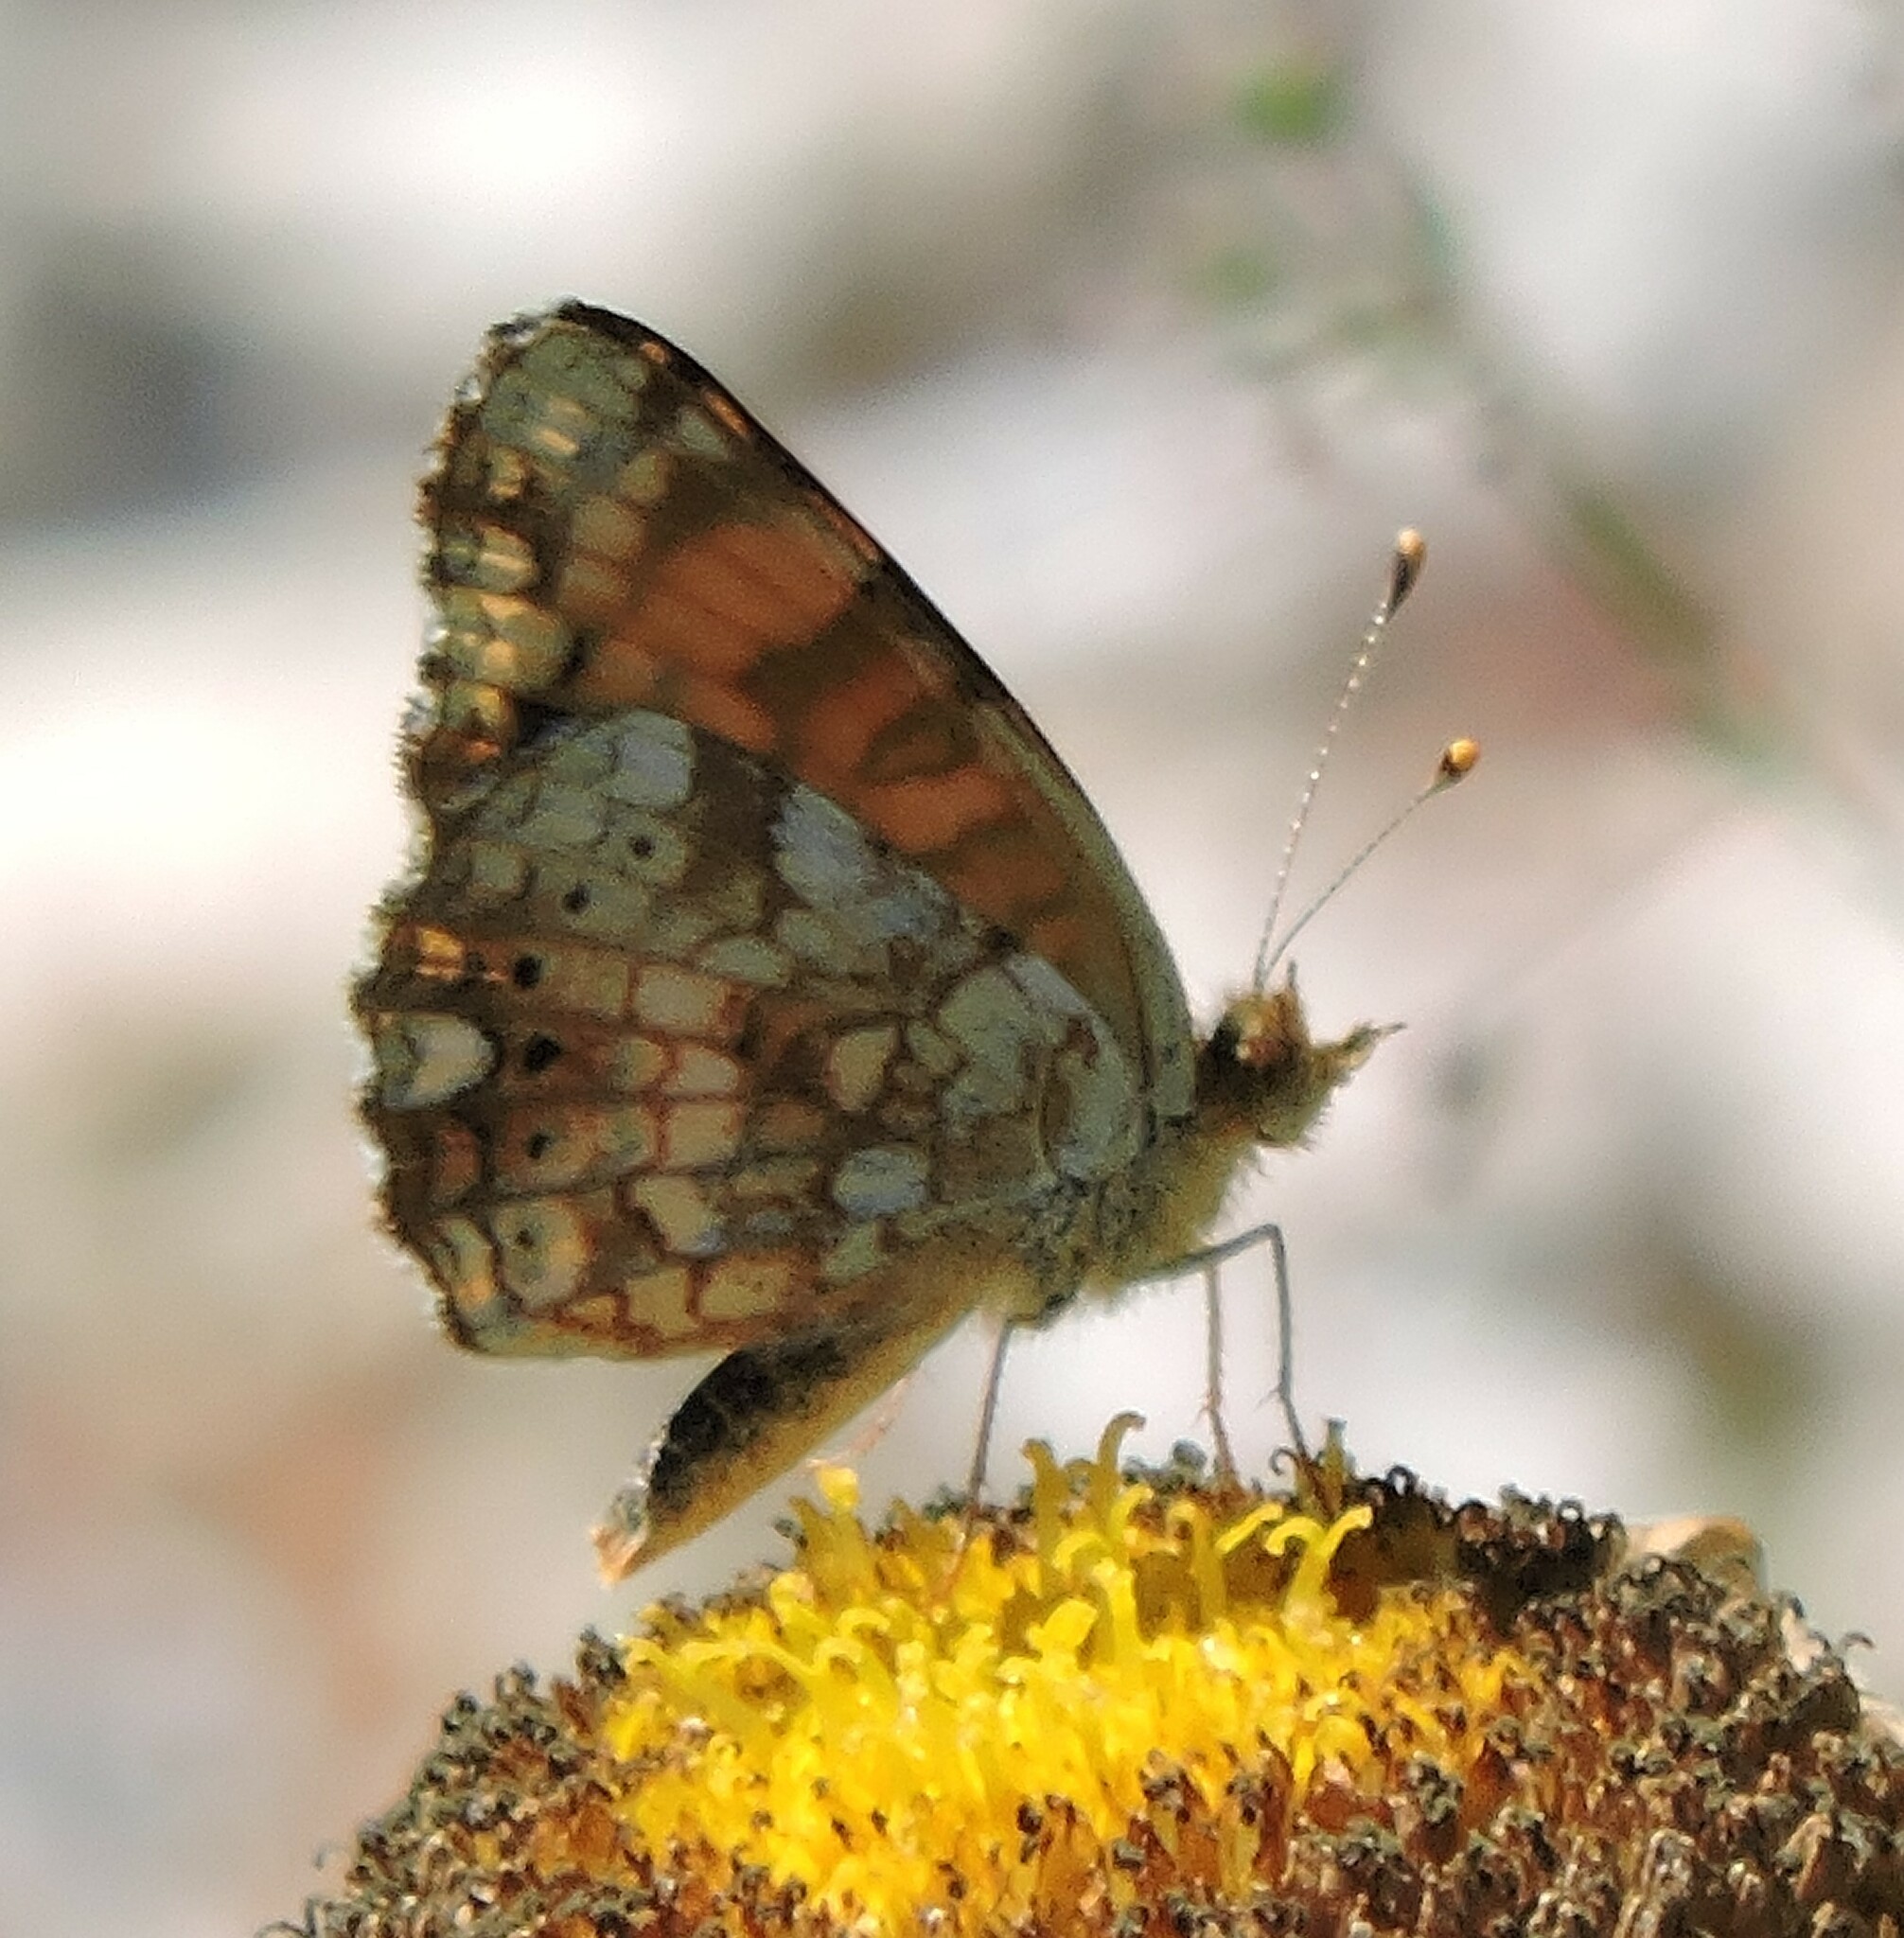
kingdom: Animalia
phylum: Arthropoda
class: Insecta
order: Lepidoptera
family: Nymphalidae
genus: Eresia
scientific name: Eresia aveyrona
